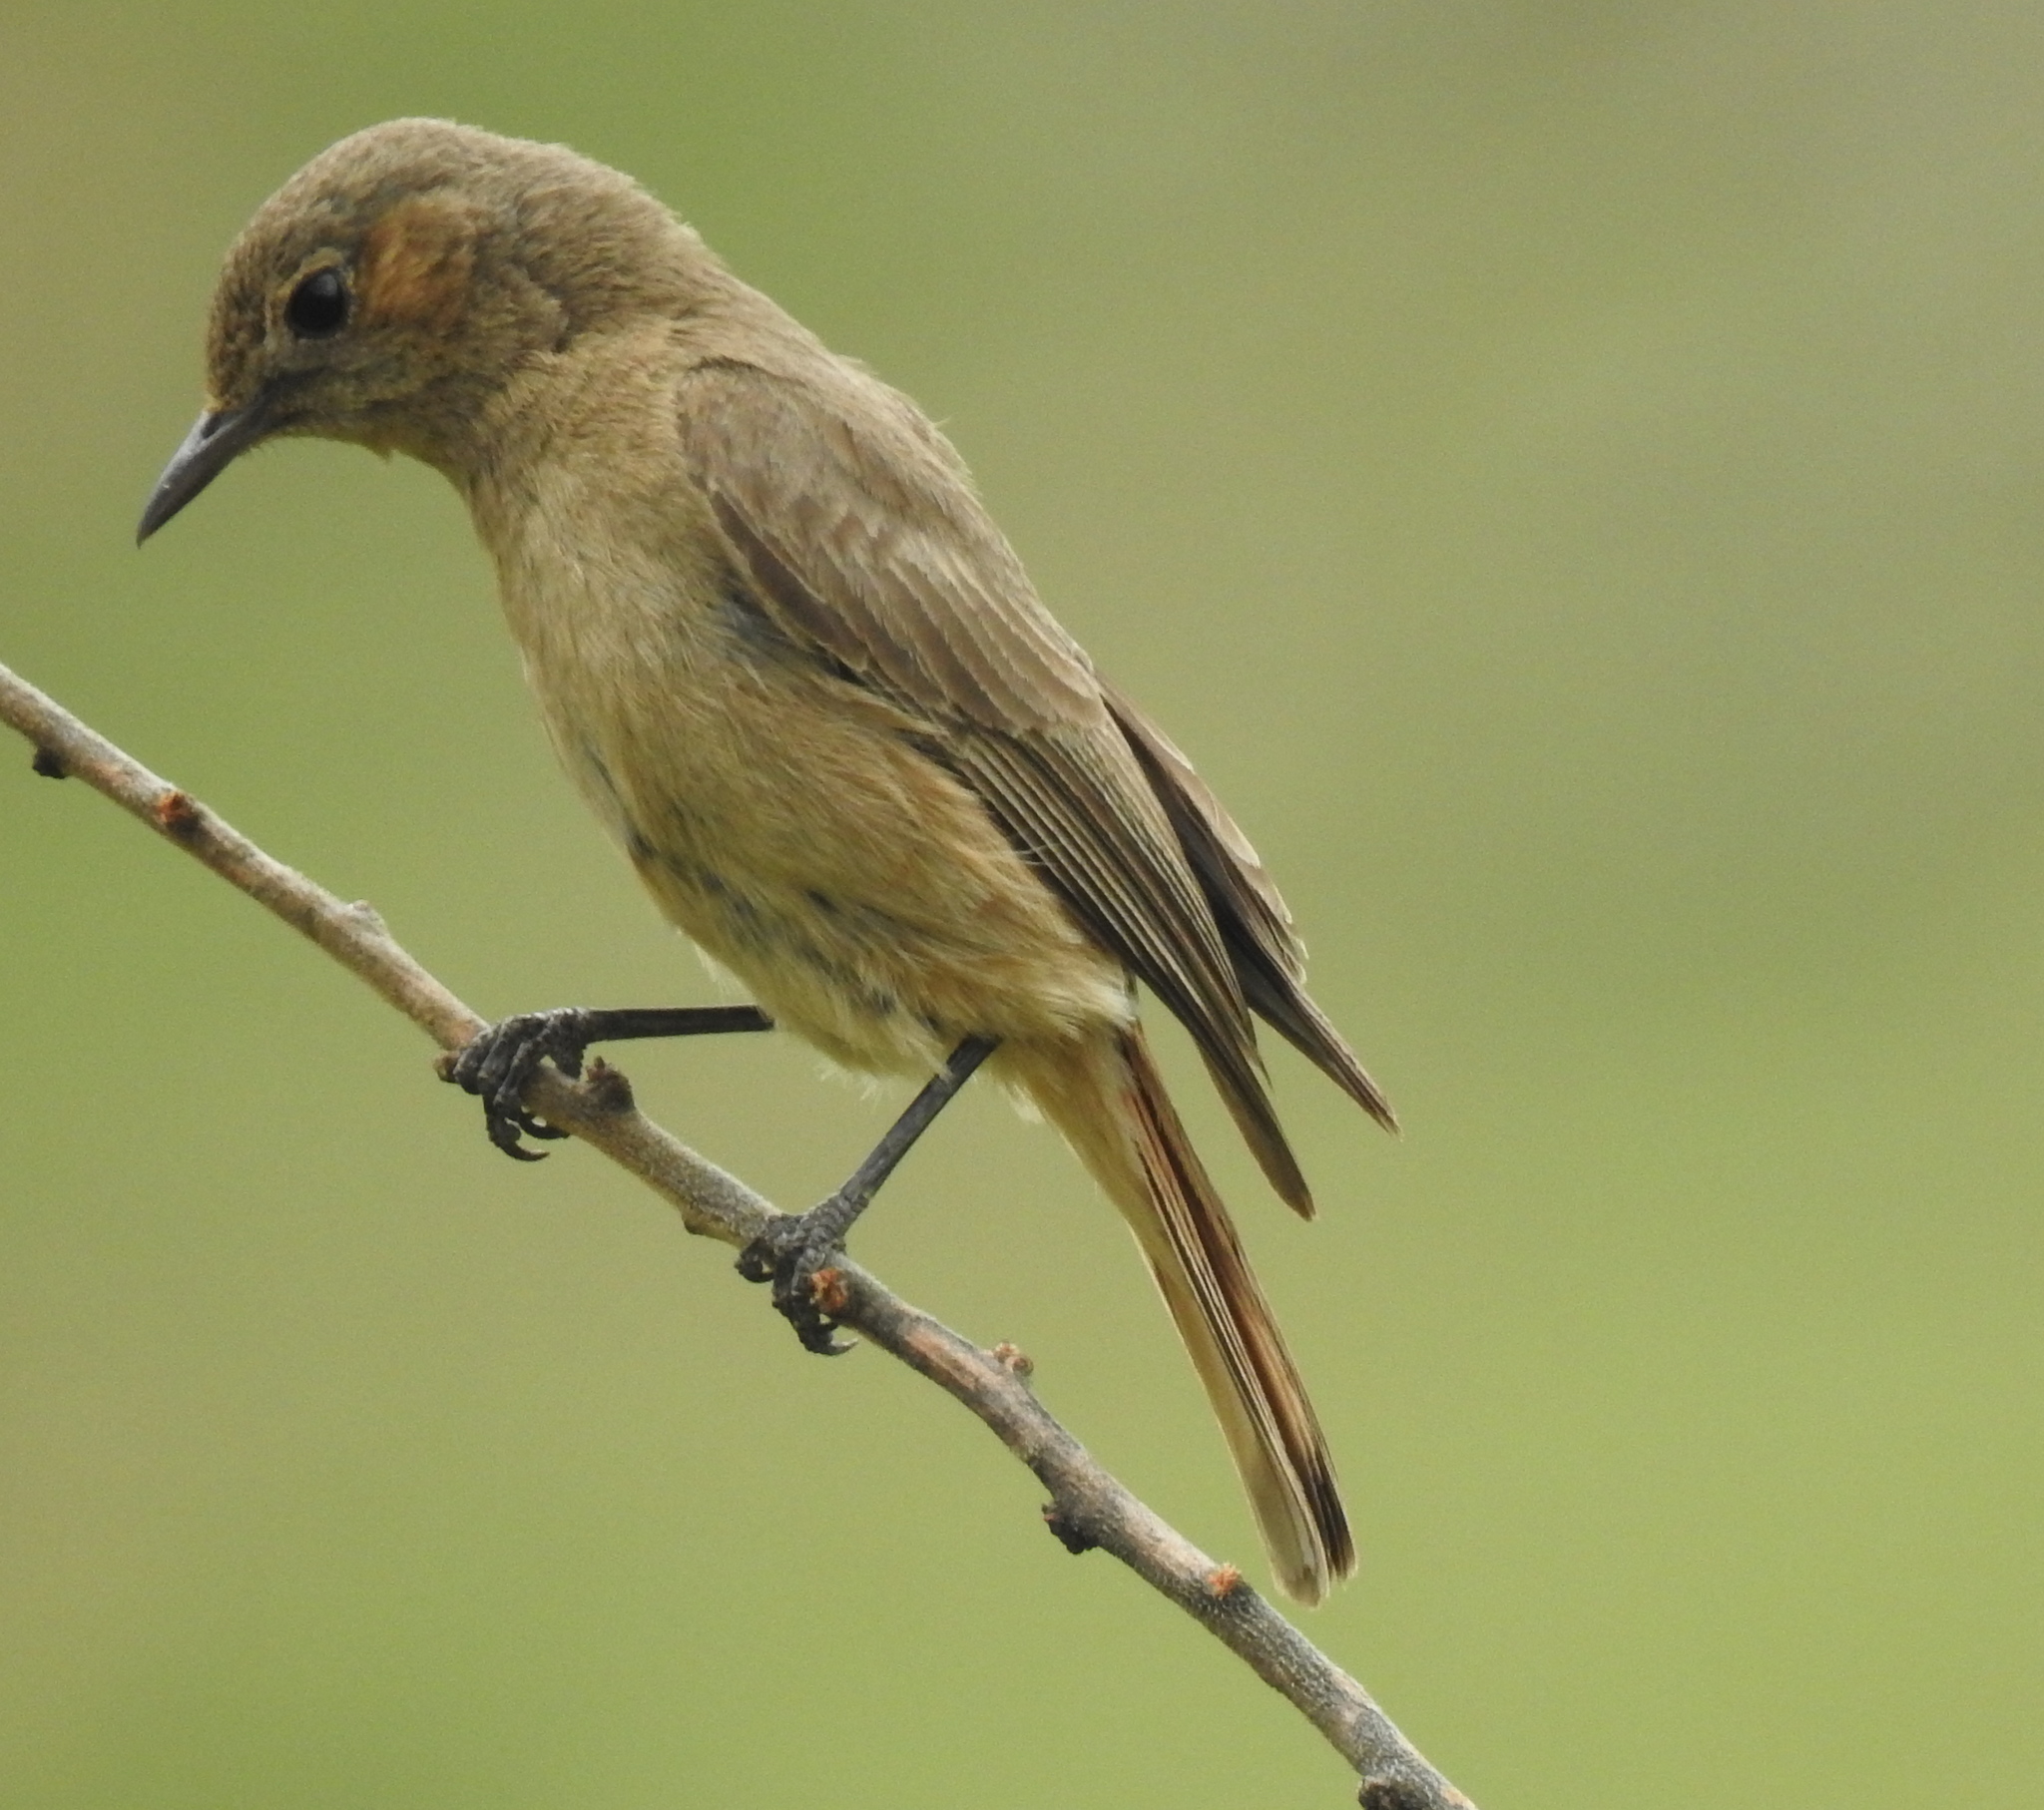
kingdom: Animalia
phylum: Chordata
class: Aves
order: Passeriformes
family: Muscicapidae
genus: Oenanthe
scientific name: Oenanthe familiaris
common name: Familiar chat
